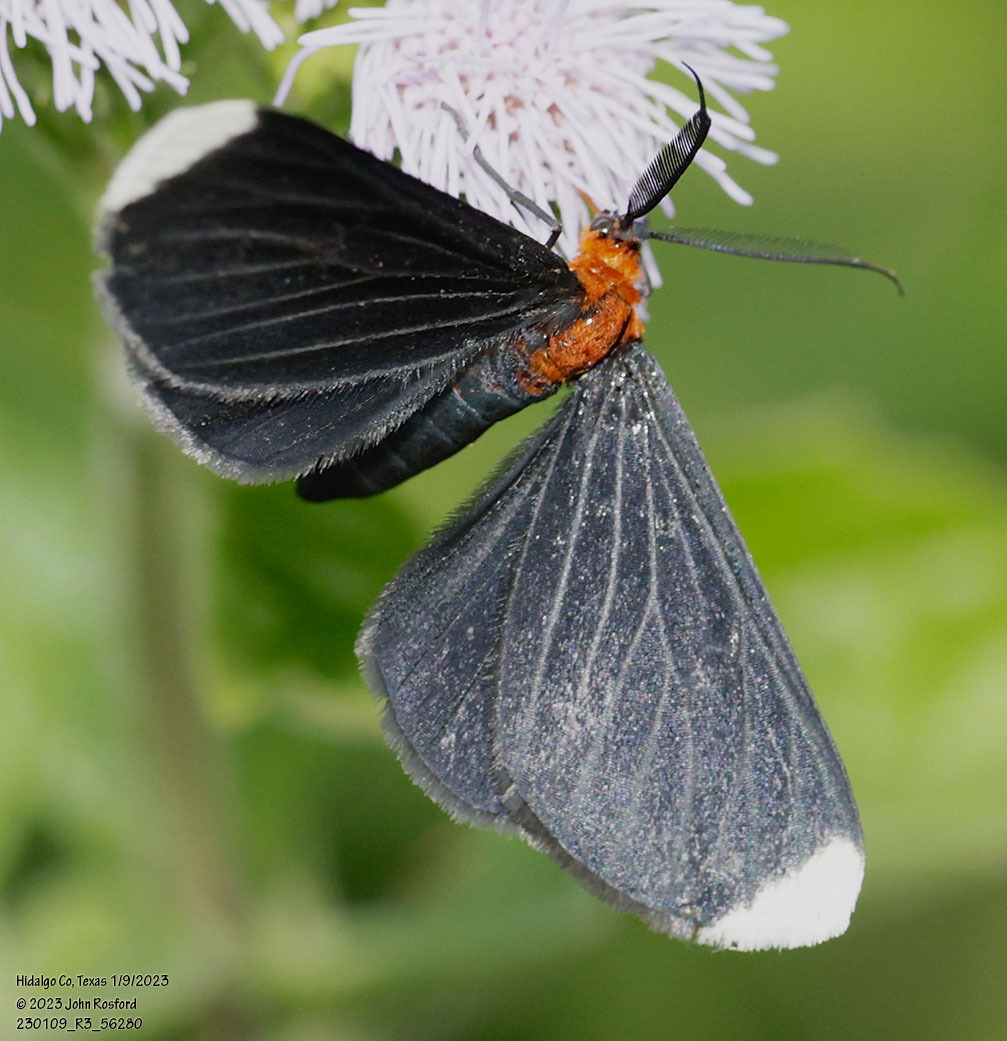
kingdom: Animalia
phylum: Arthropoda
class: Insecta
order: Lepidoptera
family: Geometridae
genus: Melanchroia
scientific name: Melanchroia chephise
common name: White-tipped black
